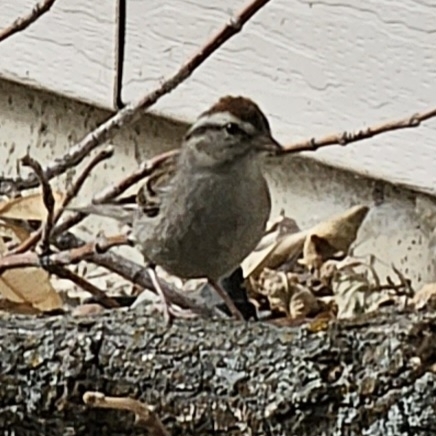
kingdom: Animalia
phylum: Chordata
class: Aves
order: Passeriformes
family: Passerellidae
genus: Spizella
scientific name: Spizella passerina
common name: Chipping sparrow
